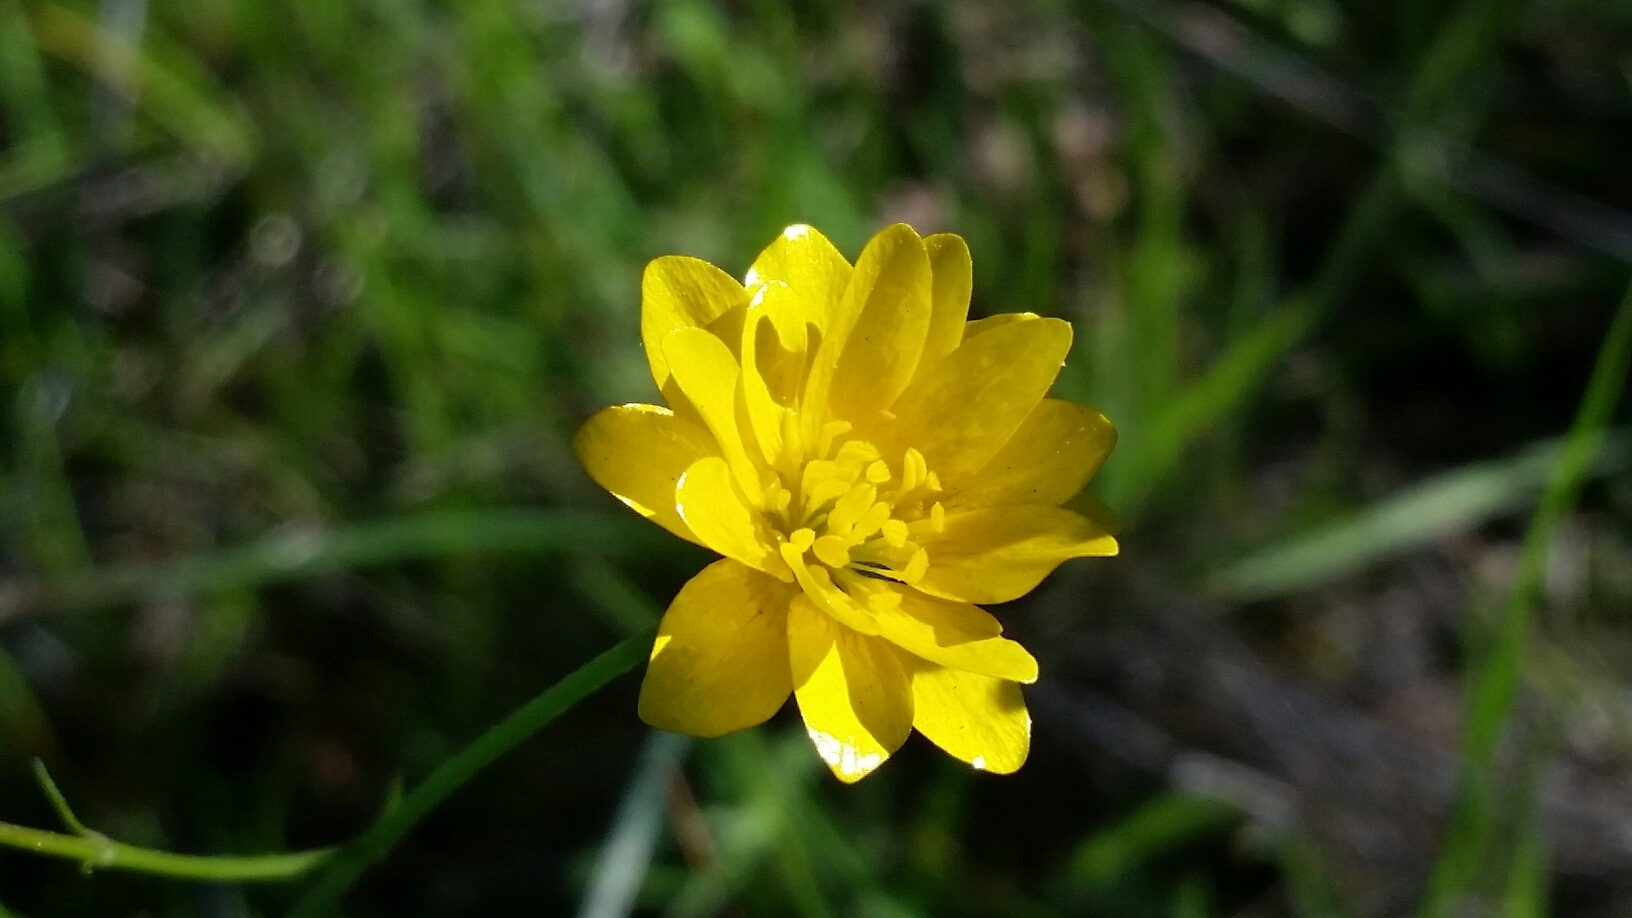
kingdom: Plantae
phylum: Tracheophyta
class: Magnoliopsida
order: Ranunculales
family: Ranunculaceae
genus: Ranunculus
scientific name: Ranunculus californicus
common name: California buttercup
